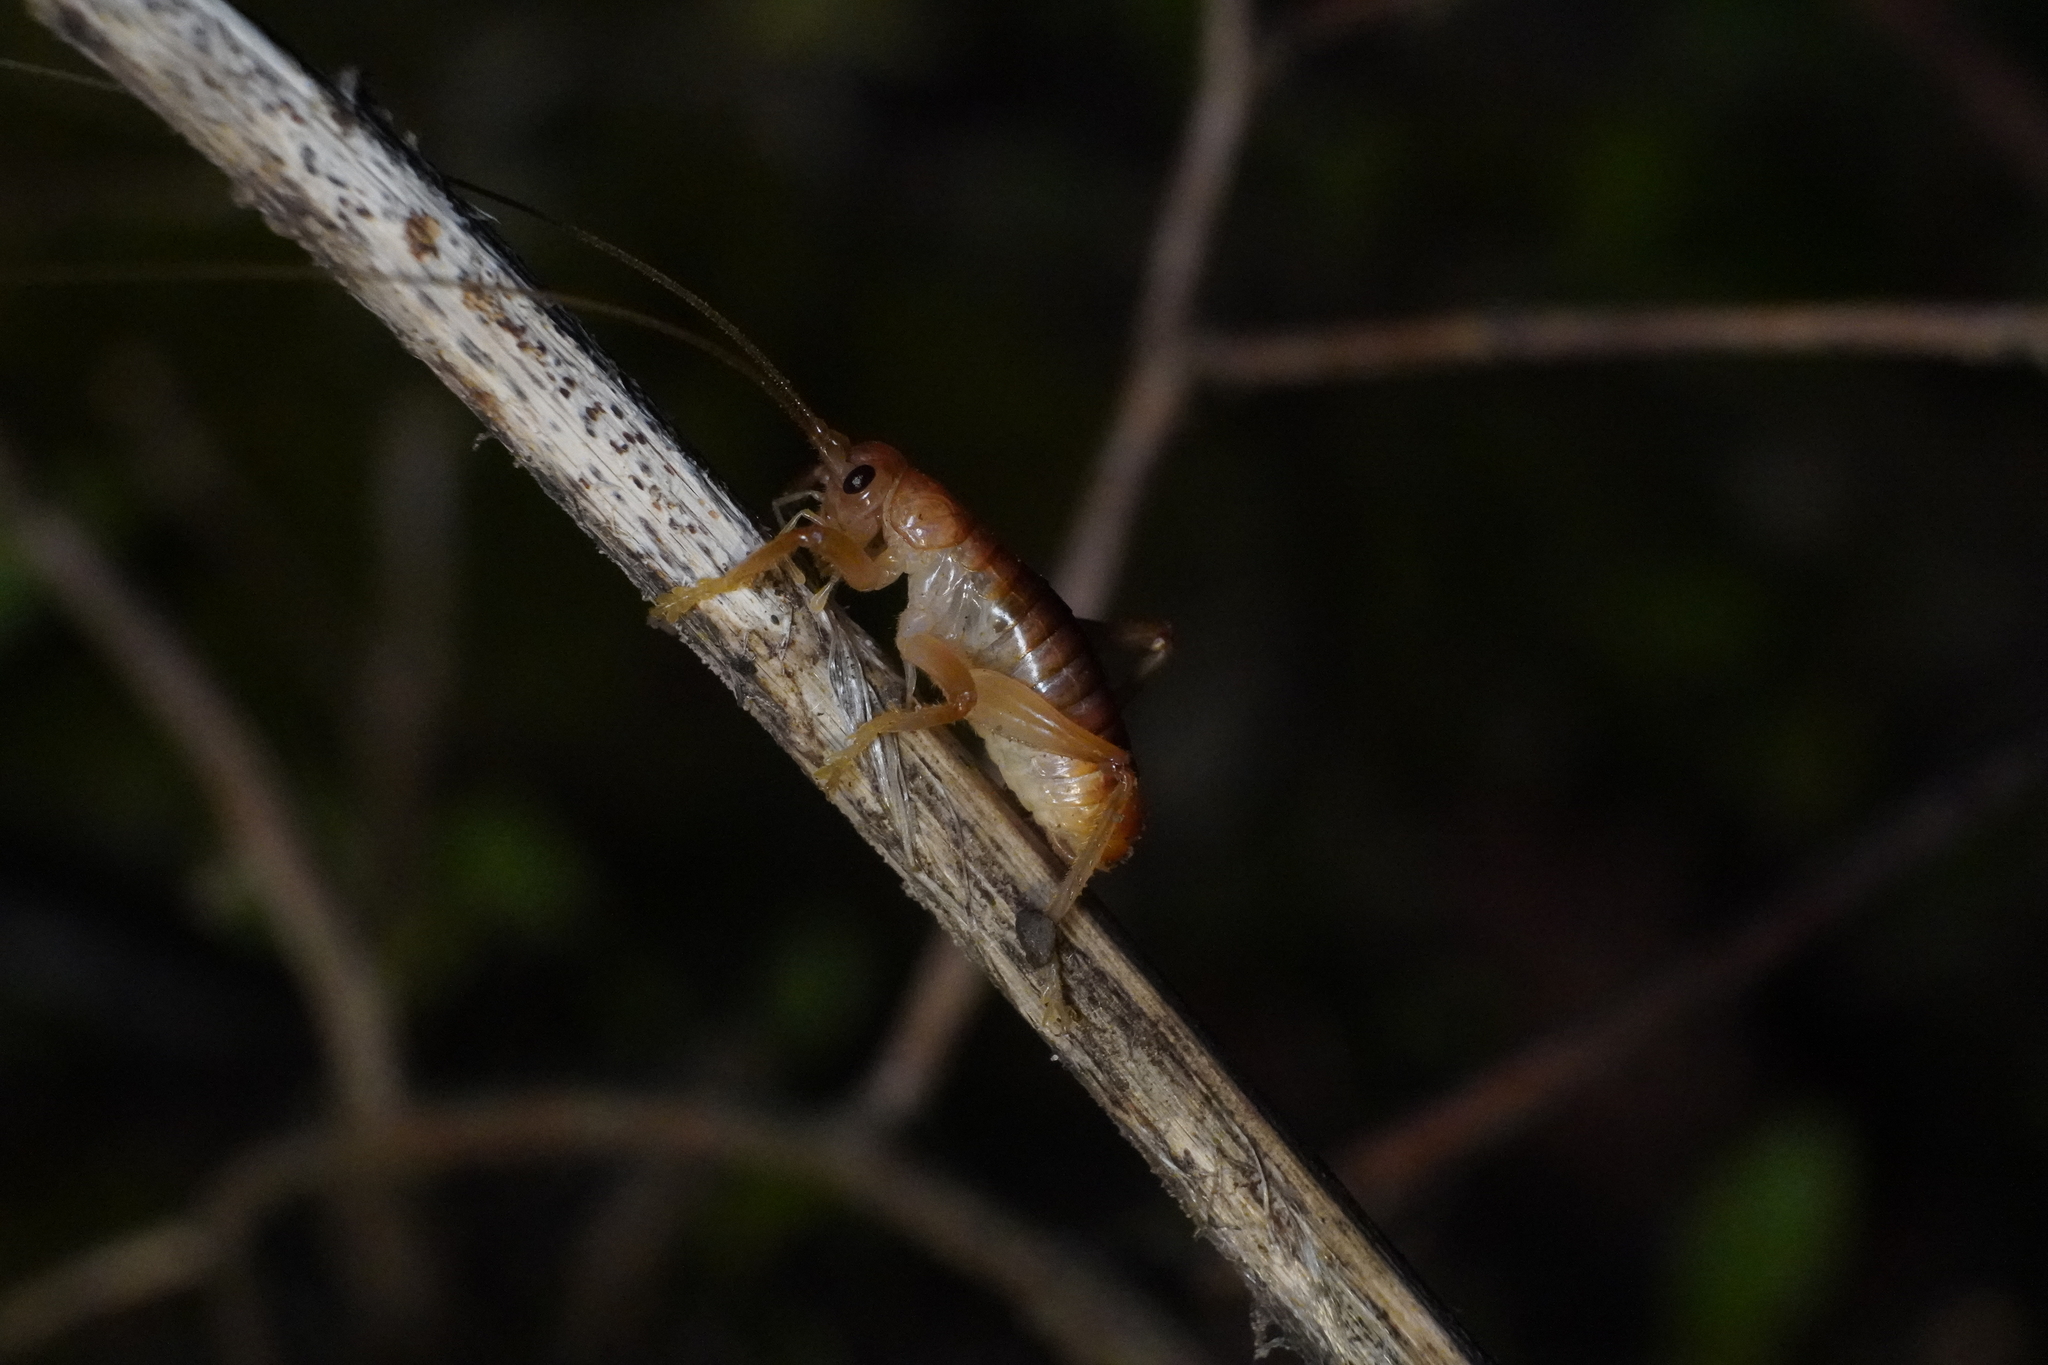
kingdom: Animalia
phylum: Arthropoda
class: Insecta
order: Orthoptera
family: Gryllacrididae
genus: Camptonotus
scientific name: Camptonotus carolinensis
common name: Carolina leaf-roller
